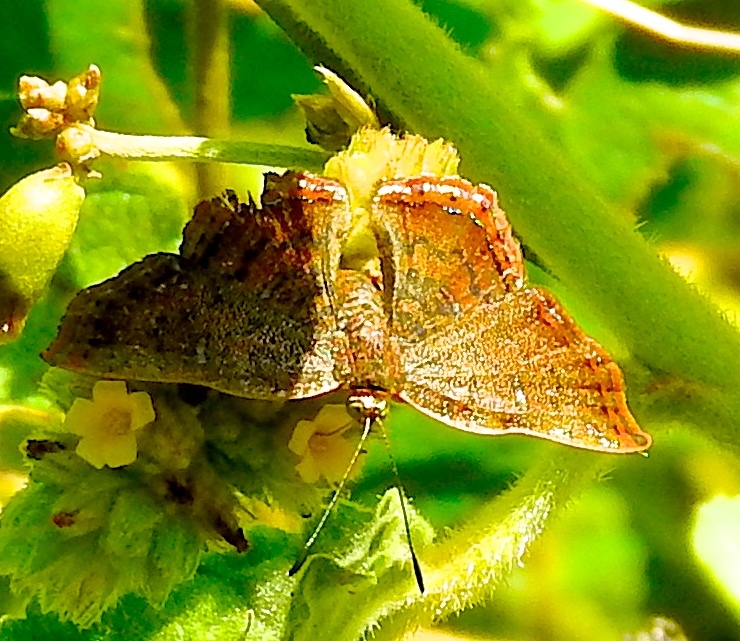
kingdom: Animalia
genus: Caria
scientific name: Caria ino
